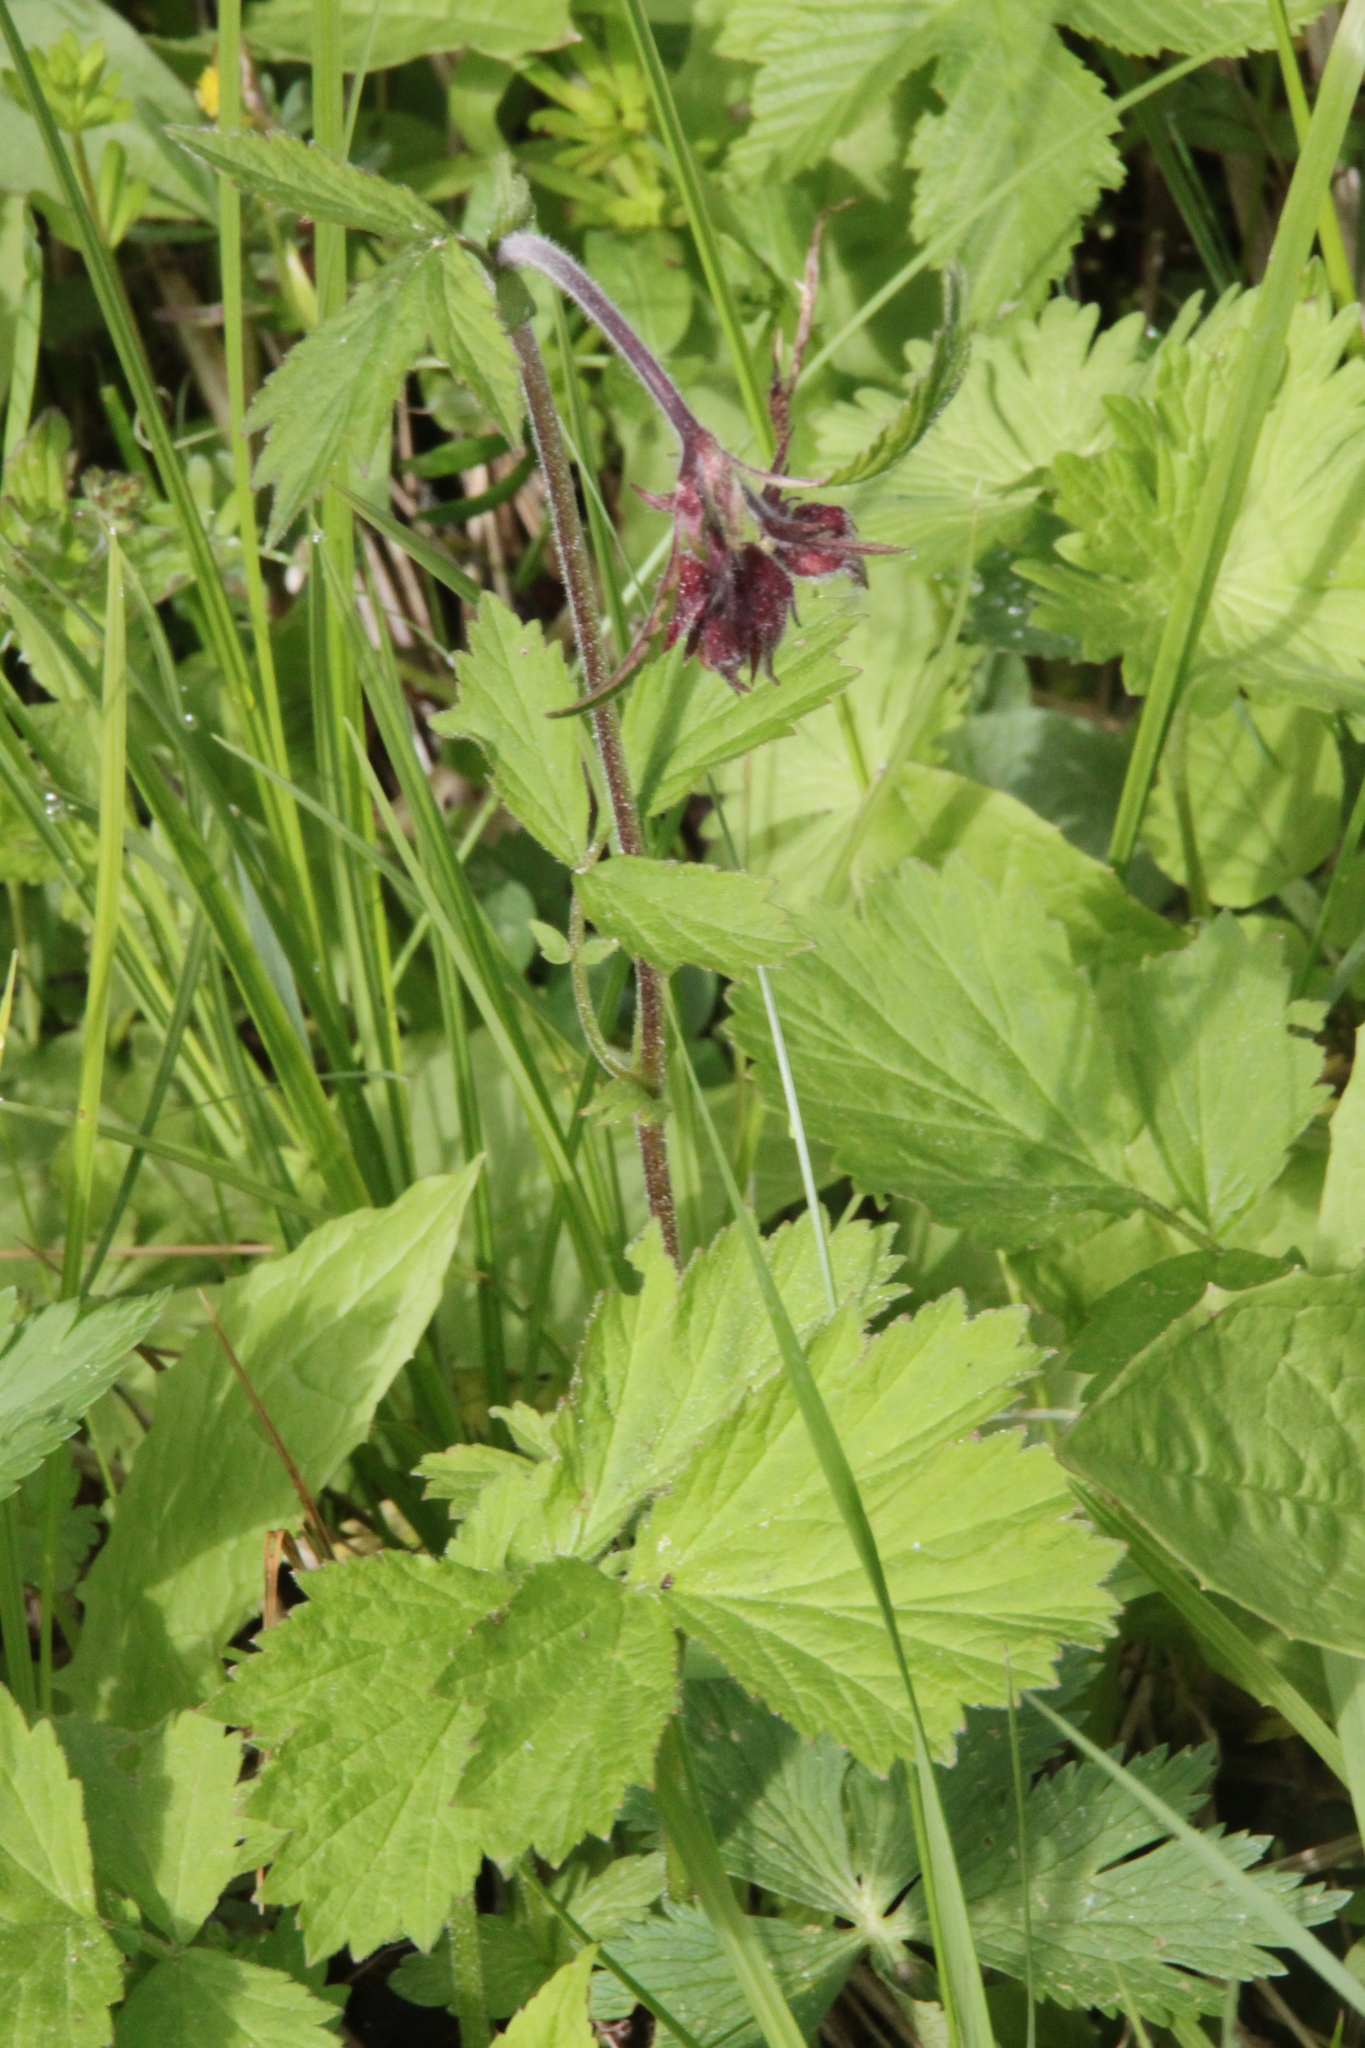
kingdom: Plantae
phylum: Tracheophyta
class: Magnoliopsida
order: Rosales
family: Rosaceae
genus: Geum
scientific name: Geum rivale
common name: Water avens
